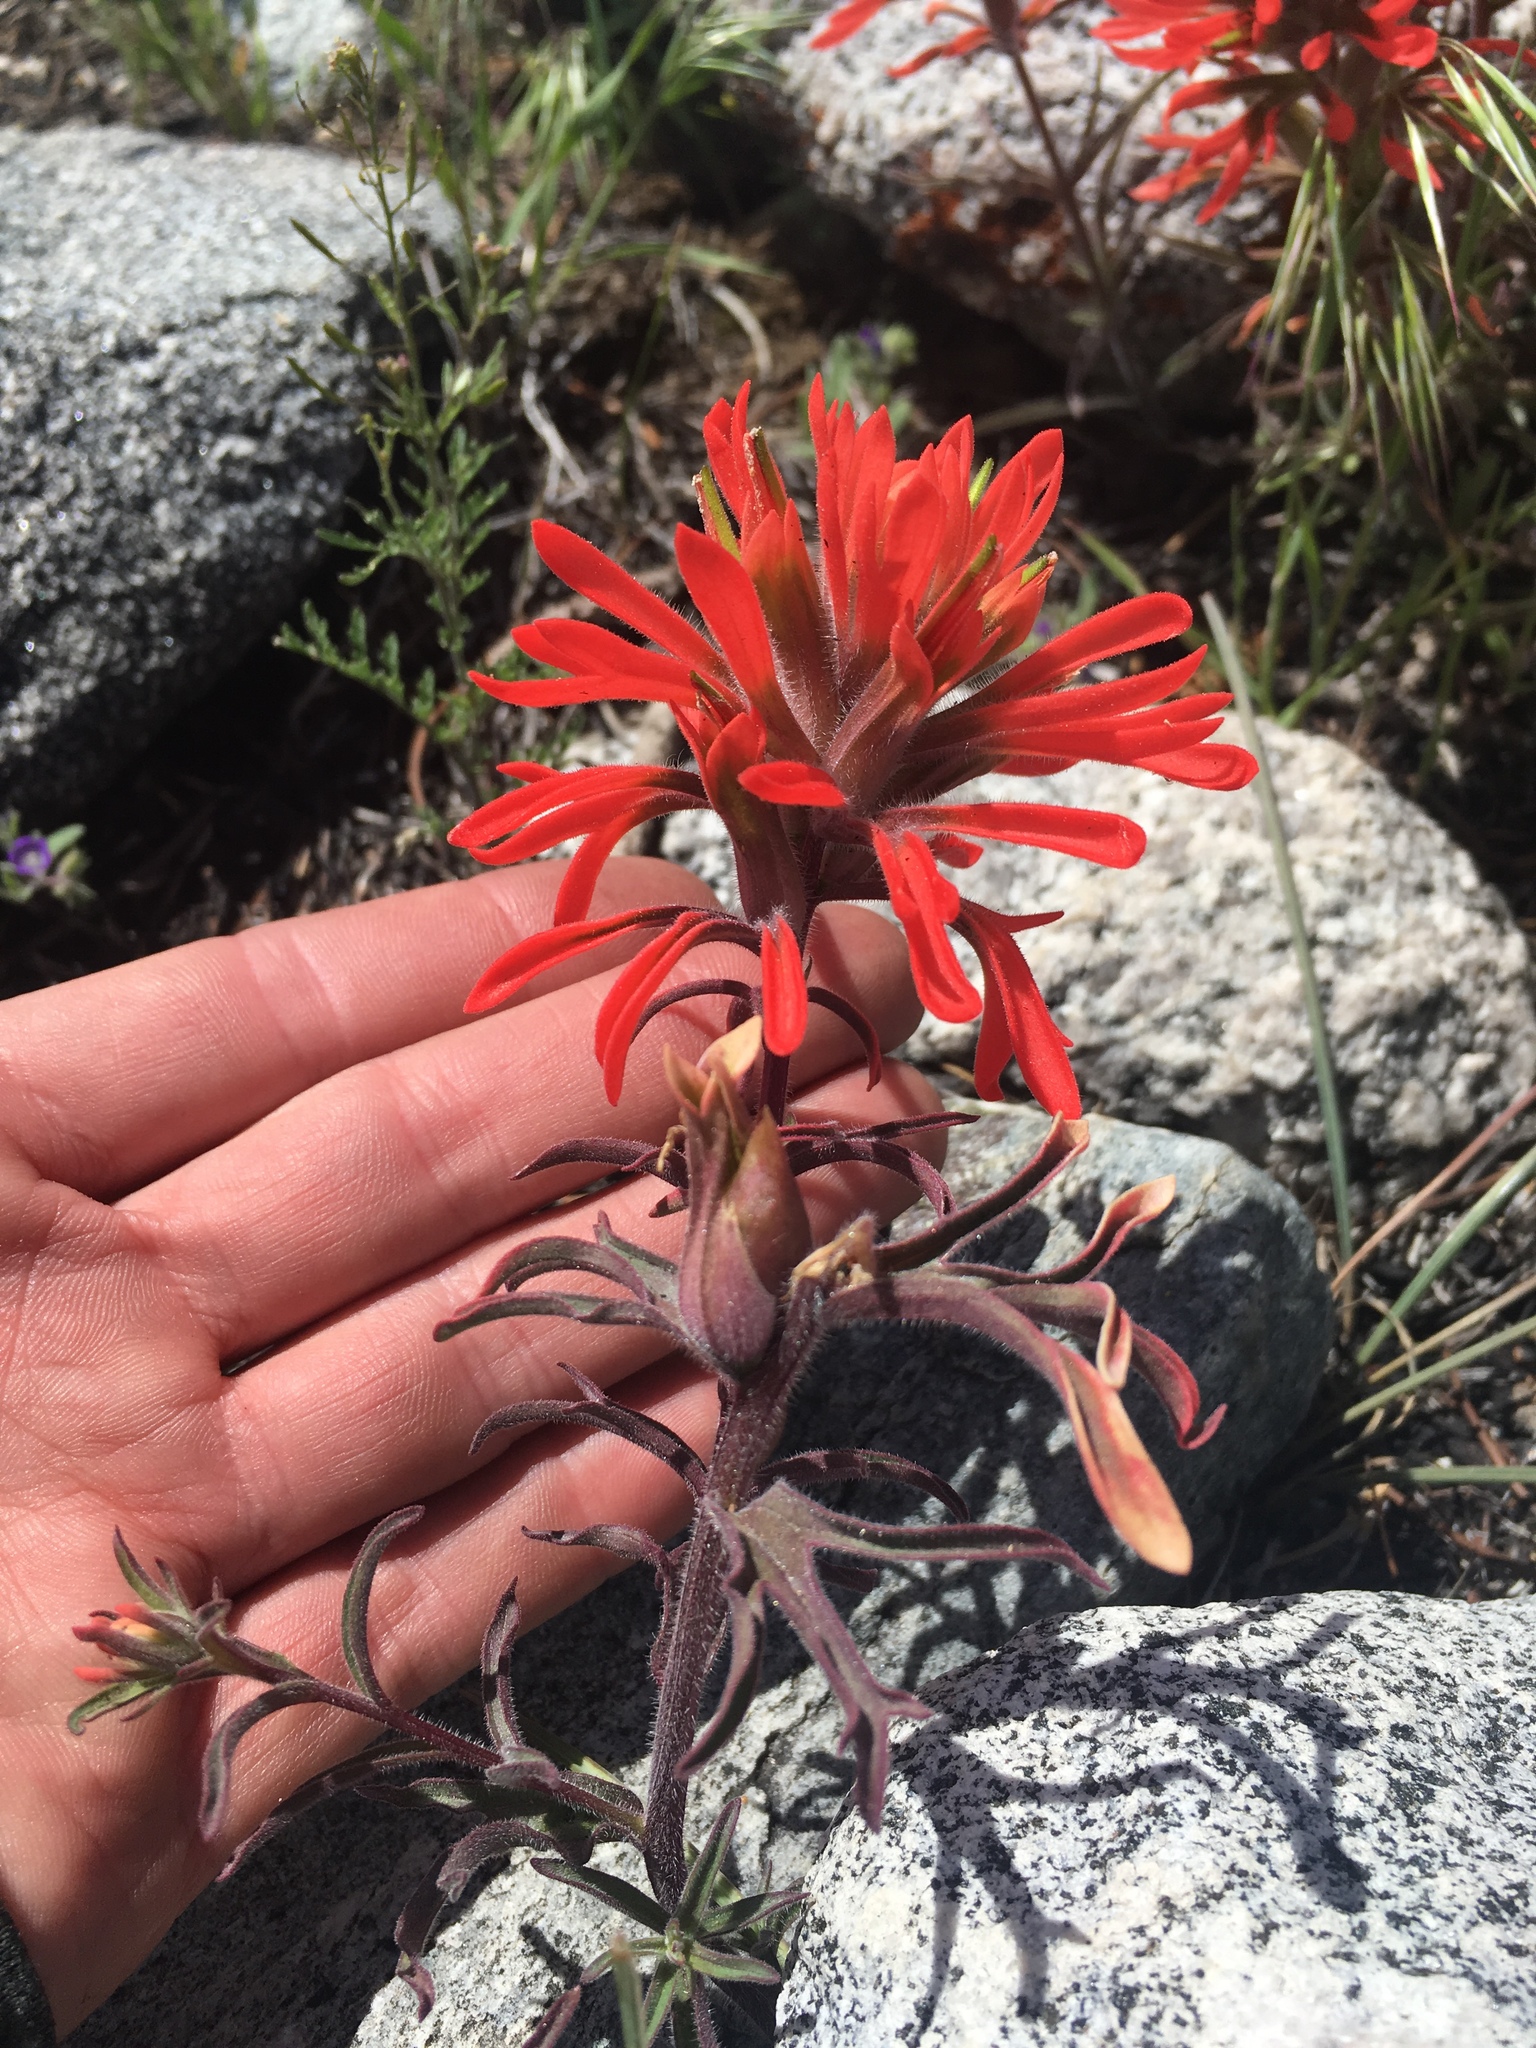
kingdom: Plantae
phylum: Tracheophyta
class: Magnoliopsida
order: Lamiales
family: Orobanchaceae
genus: Castilleja
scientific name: Castilleja chromosa
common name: Desert paintbrush
